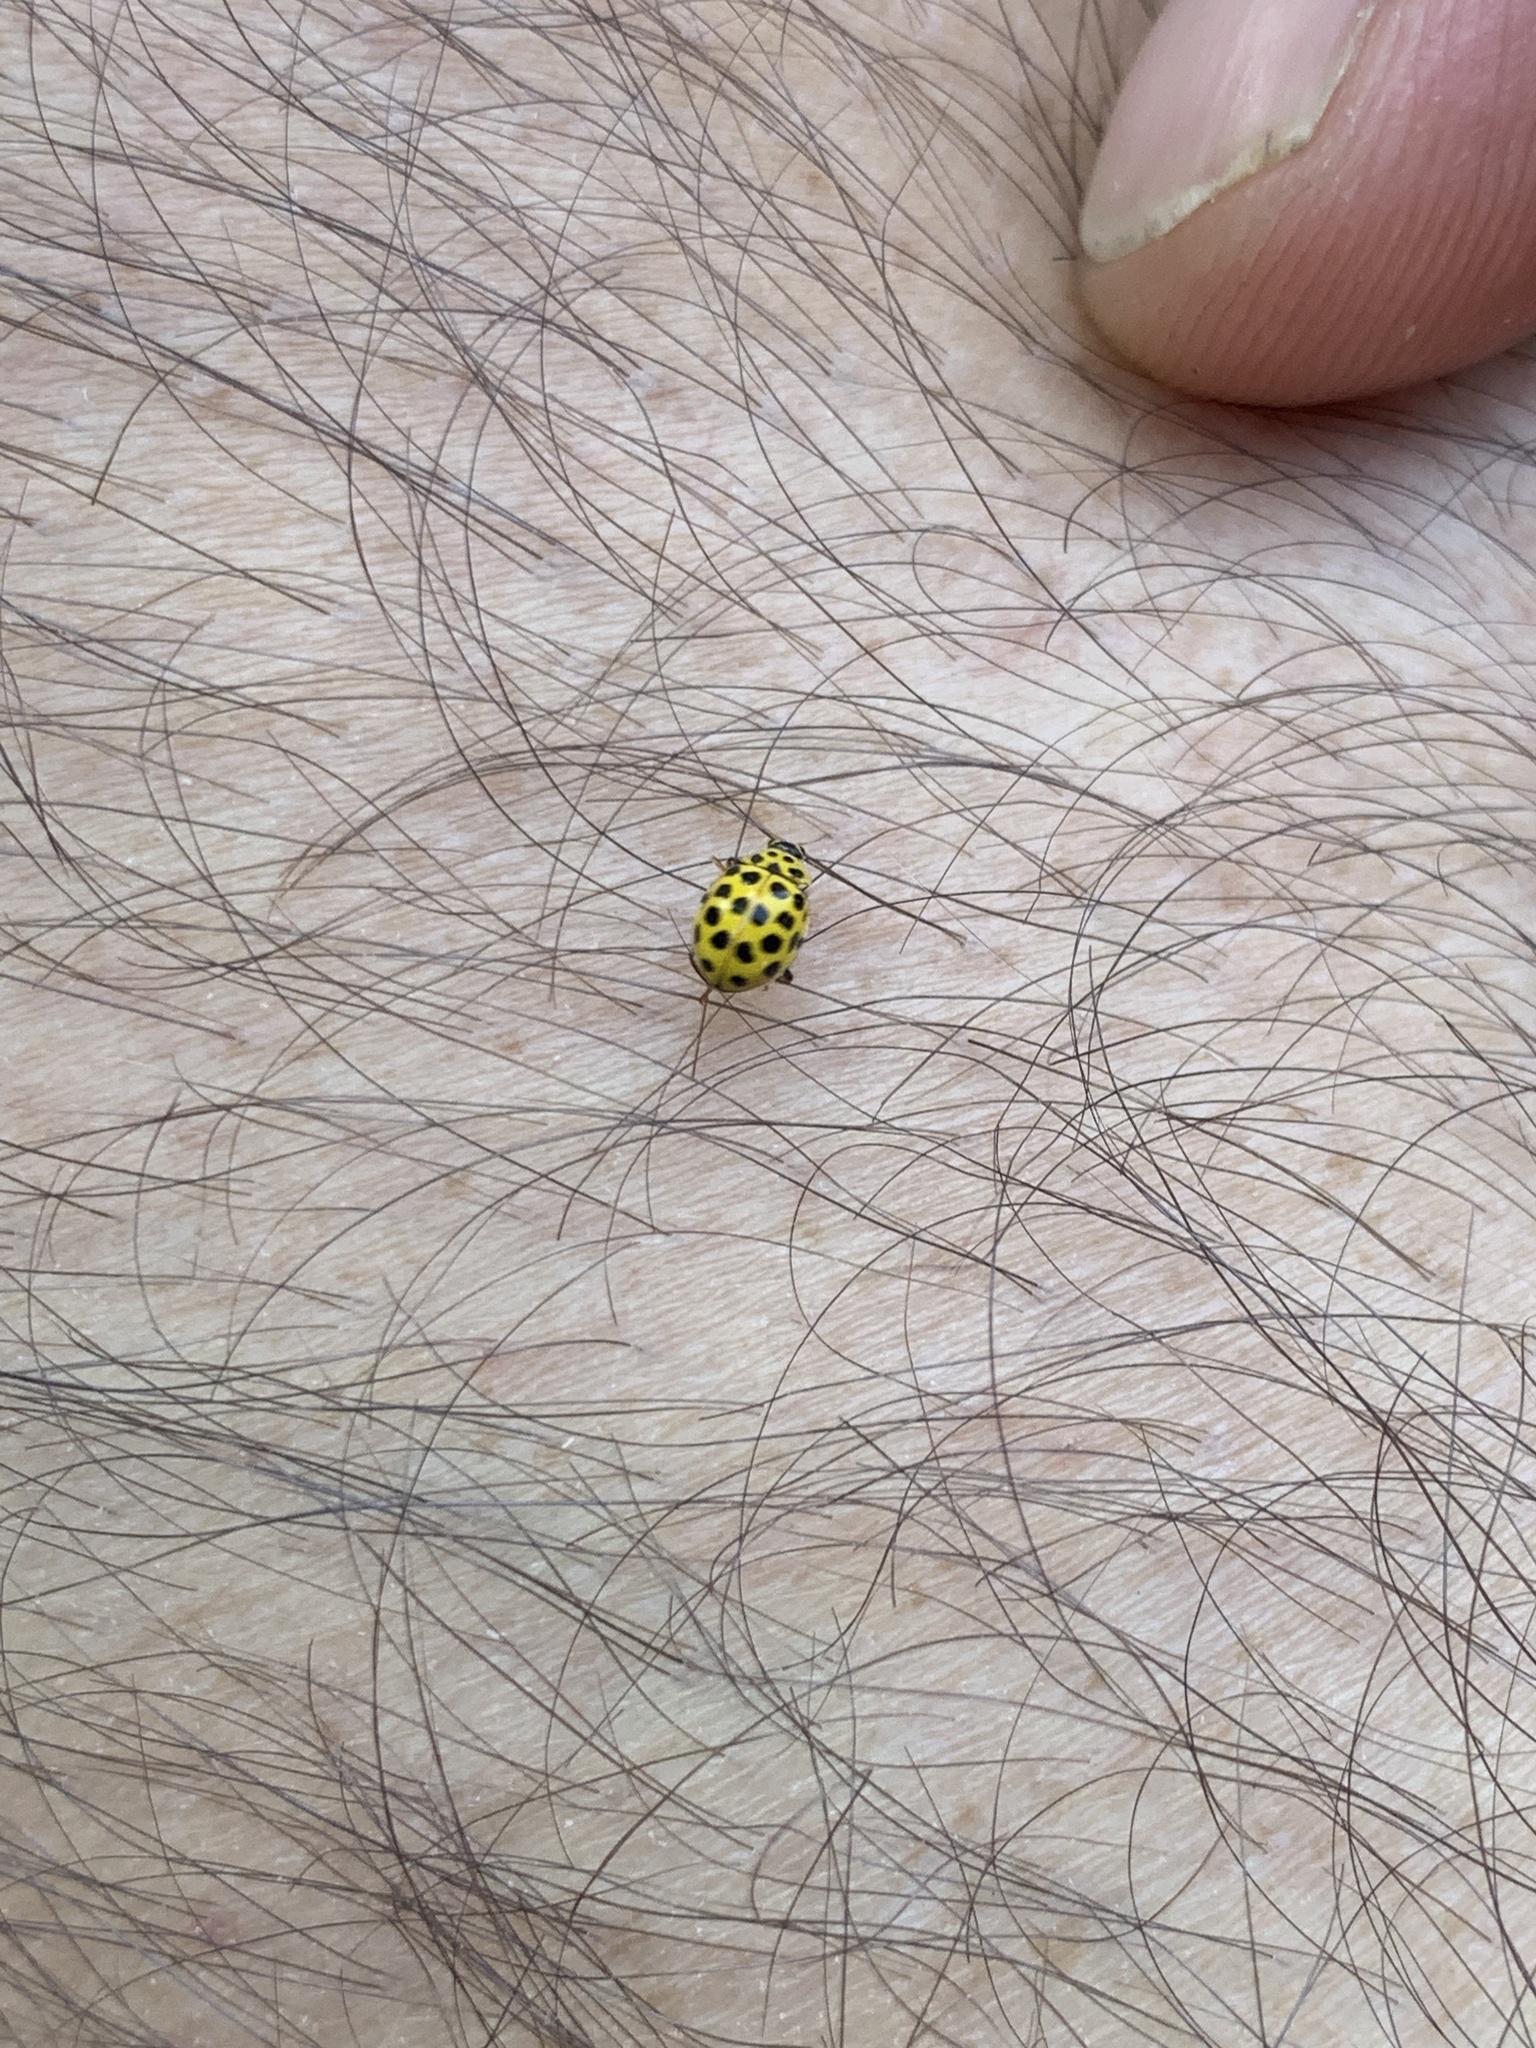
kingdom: Animalia
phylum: Arthropoda
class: Insecta
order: Coleoptera
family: Coccinellidae
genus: Psyllobora
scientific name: Psyllobora vigintiduopunctata
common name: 22-spot ladybird
